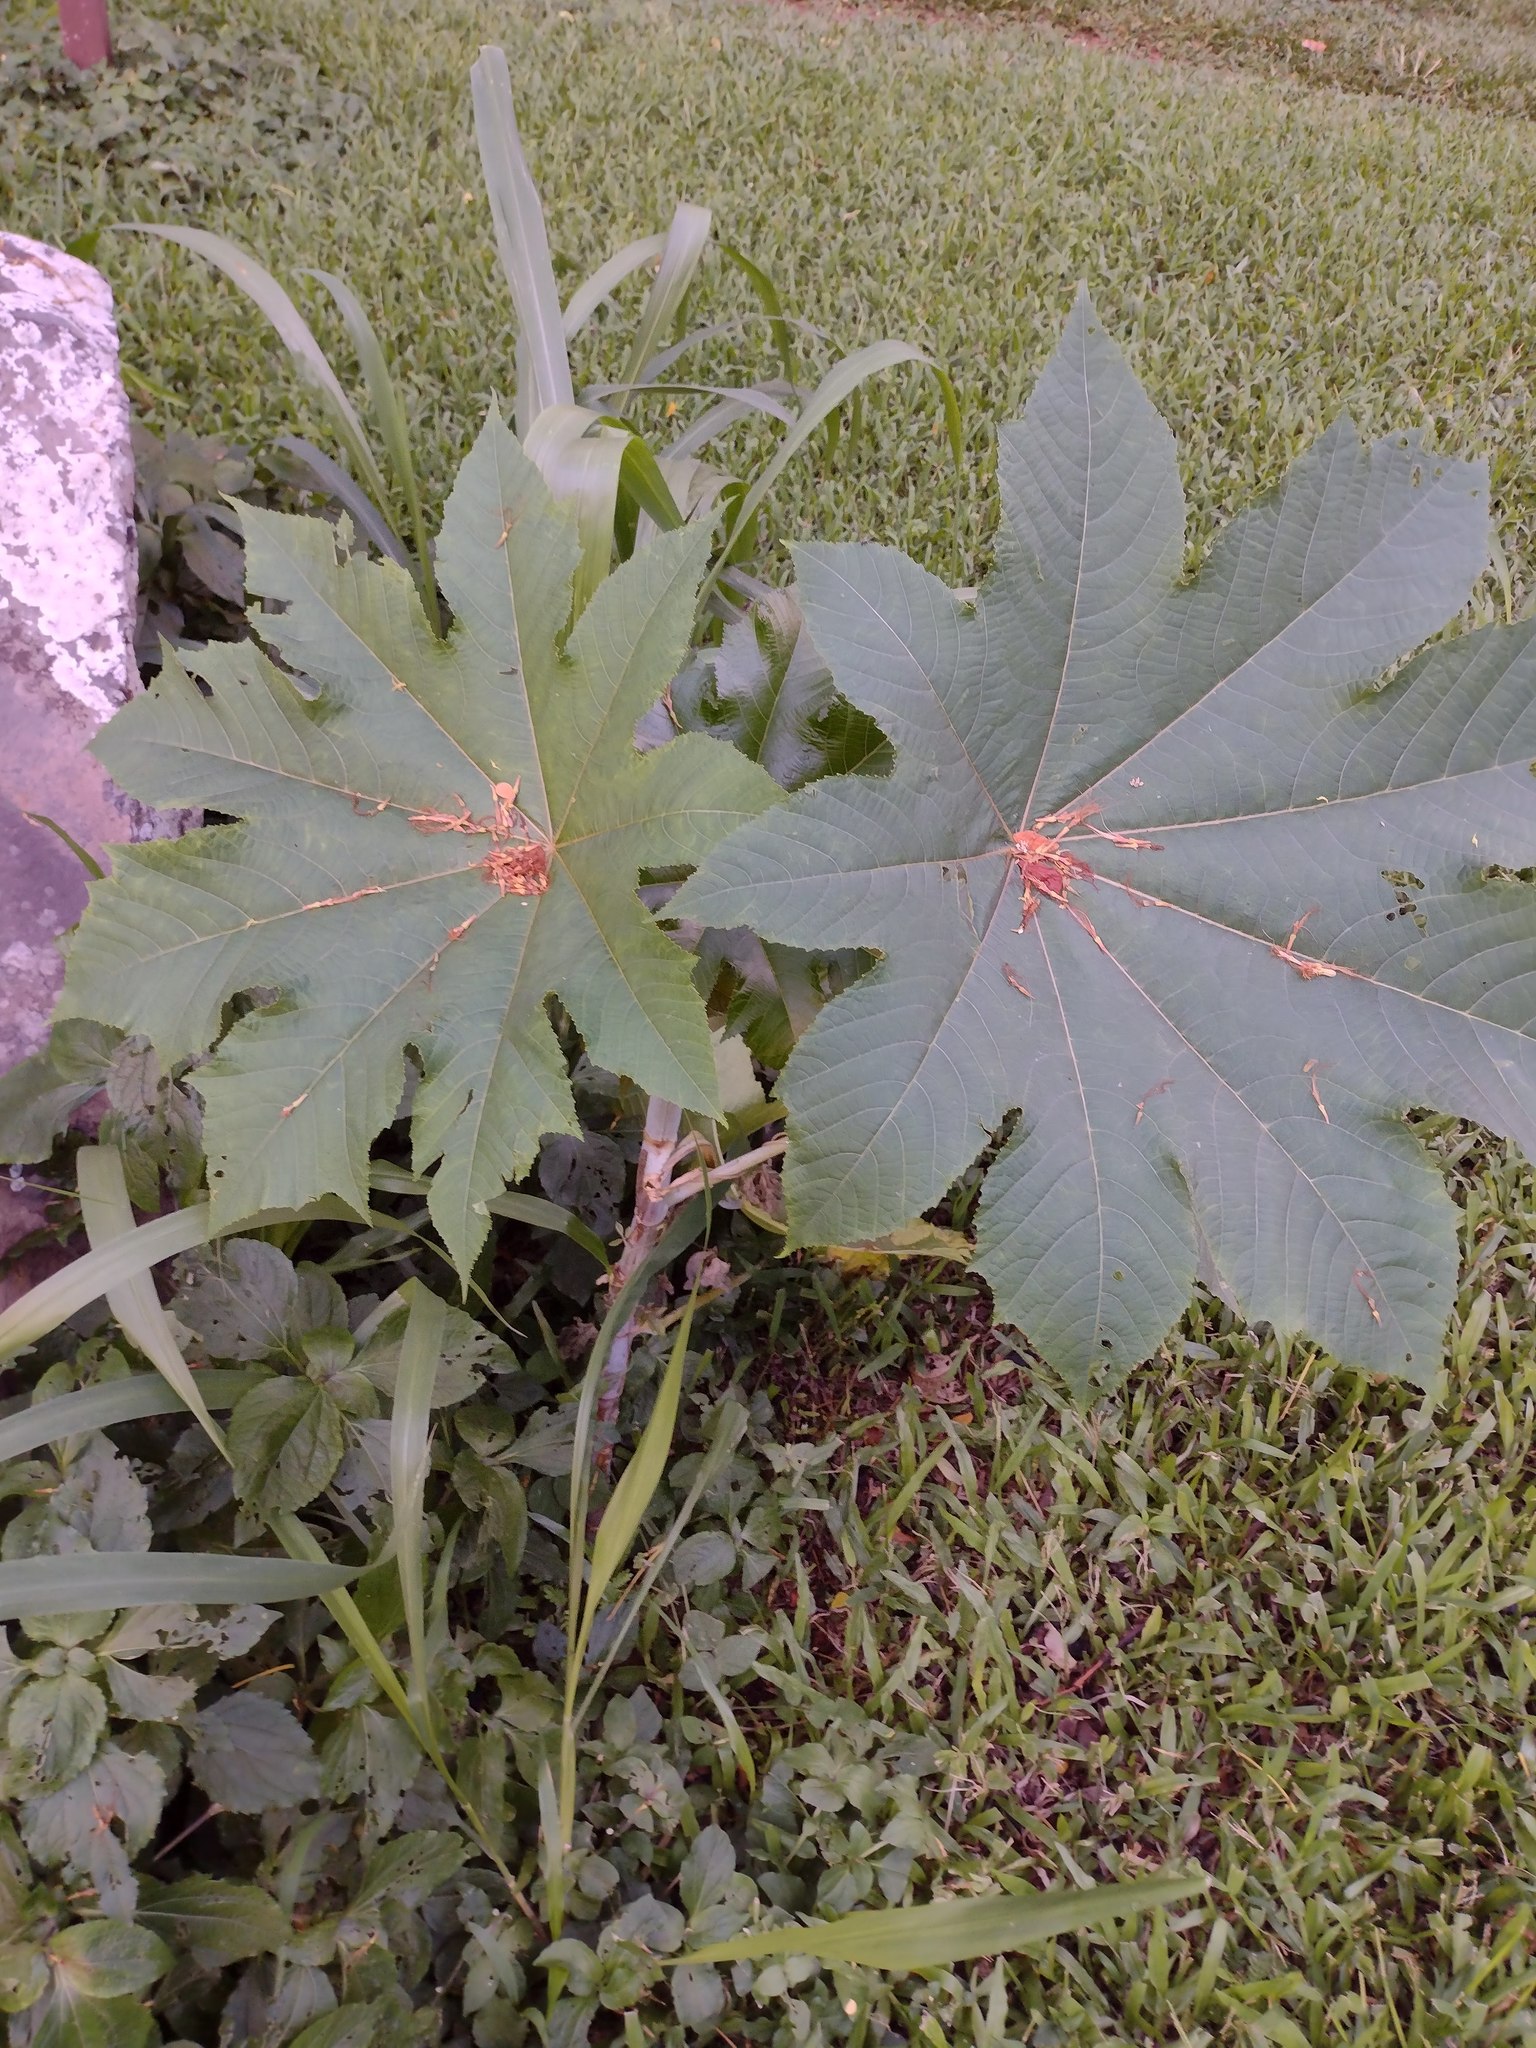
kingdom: Plantae
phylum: Tracheophyta
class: Magnoliopsida
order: Malpighiales
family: Euphorbiaceae
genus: Ricinus
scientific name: Ricinus communis
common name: Castor-oil-plant
